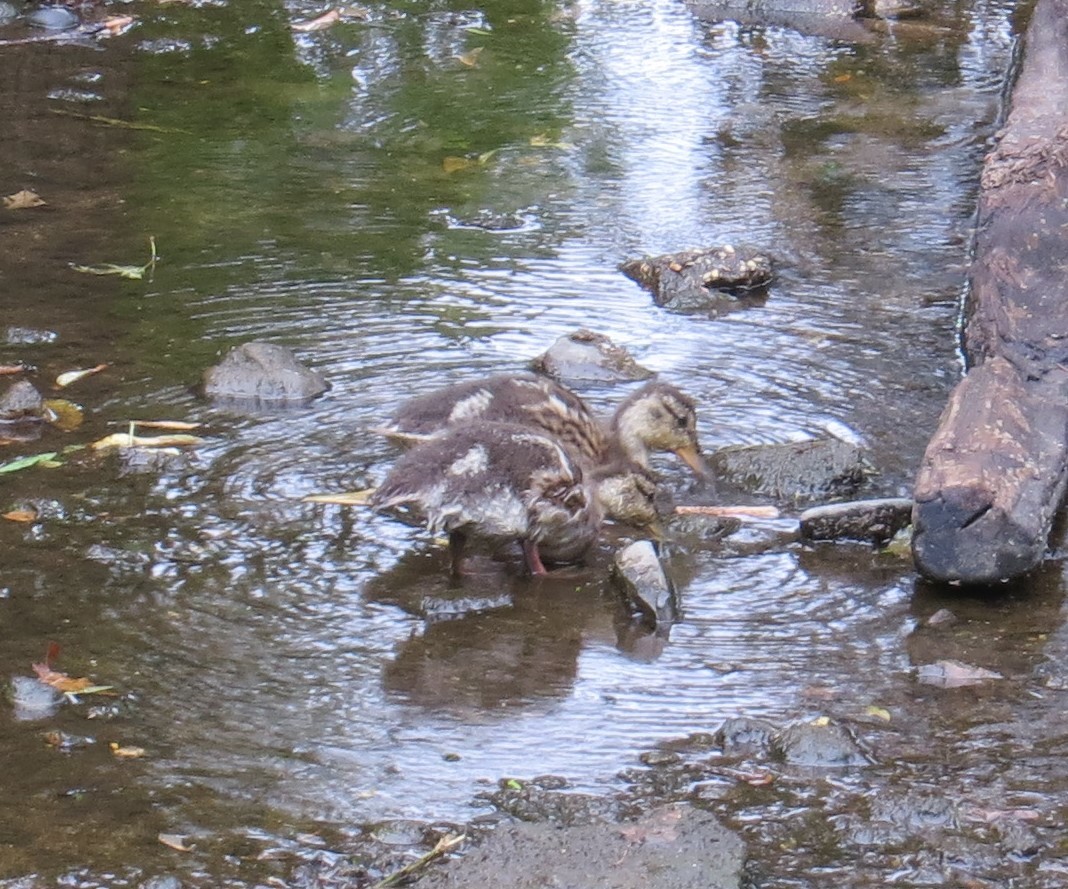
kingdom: Animalia
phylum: Chordata
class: Aves
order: Anseriformes
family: Anatidae
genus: Anas
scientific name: Anas platyrhynchos
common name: Mallard
